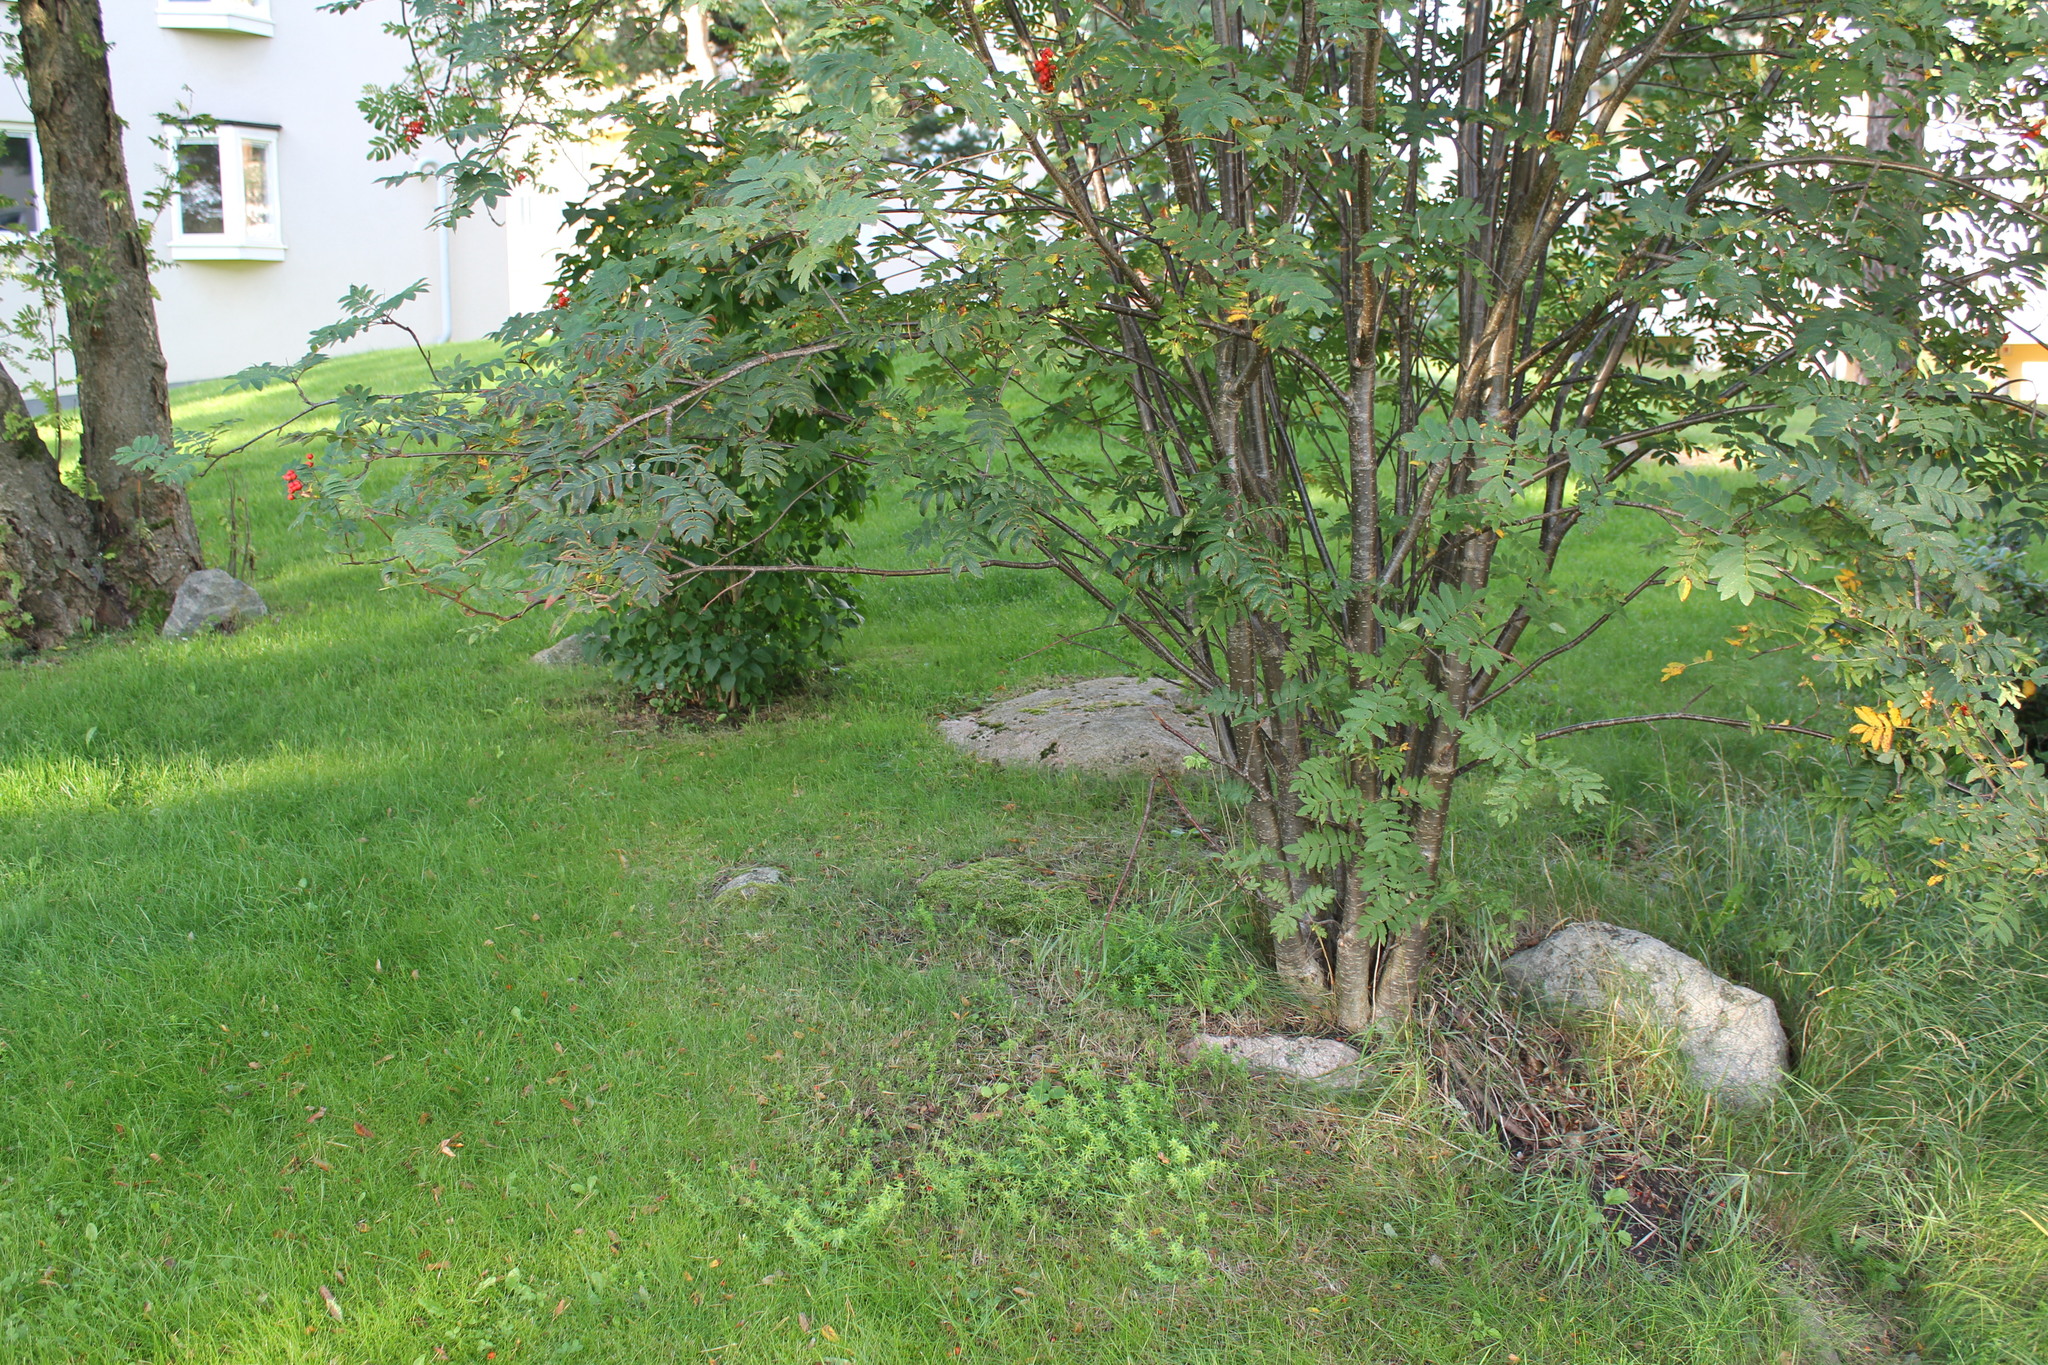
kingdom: Plantae
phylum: Tracheophyta
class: Magnoliopsida
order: Rosales
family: Rosaceae
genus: Sorbus
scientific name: Sorbus aucuparia
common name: Rowan
